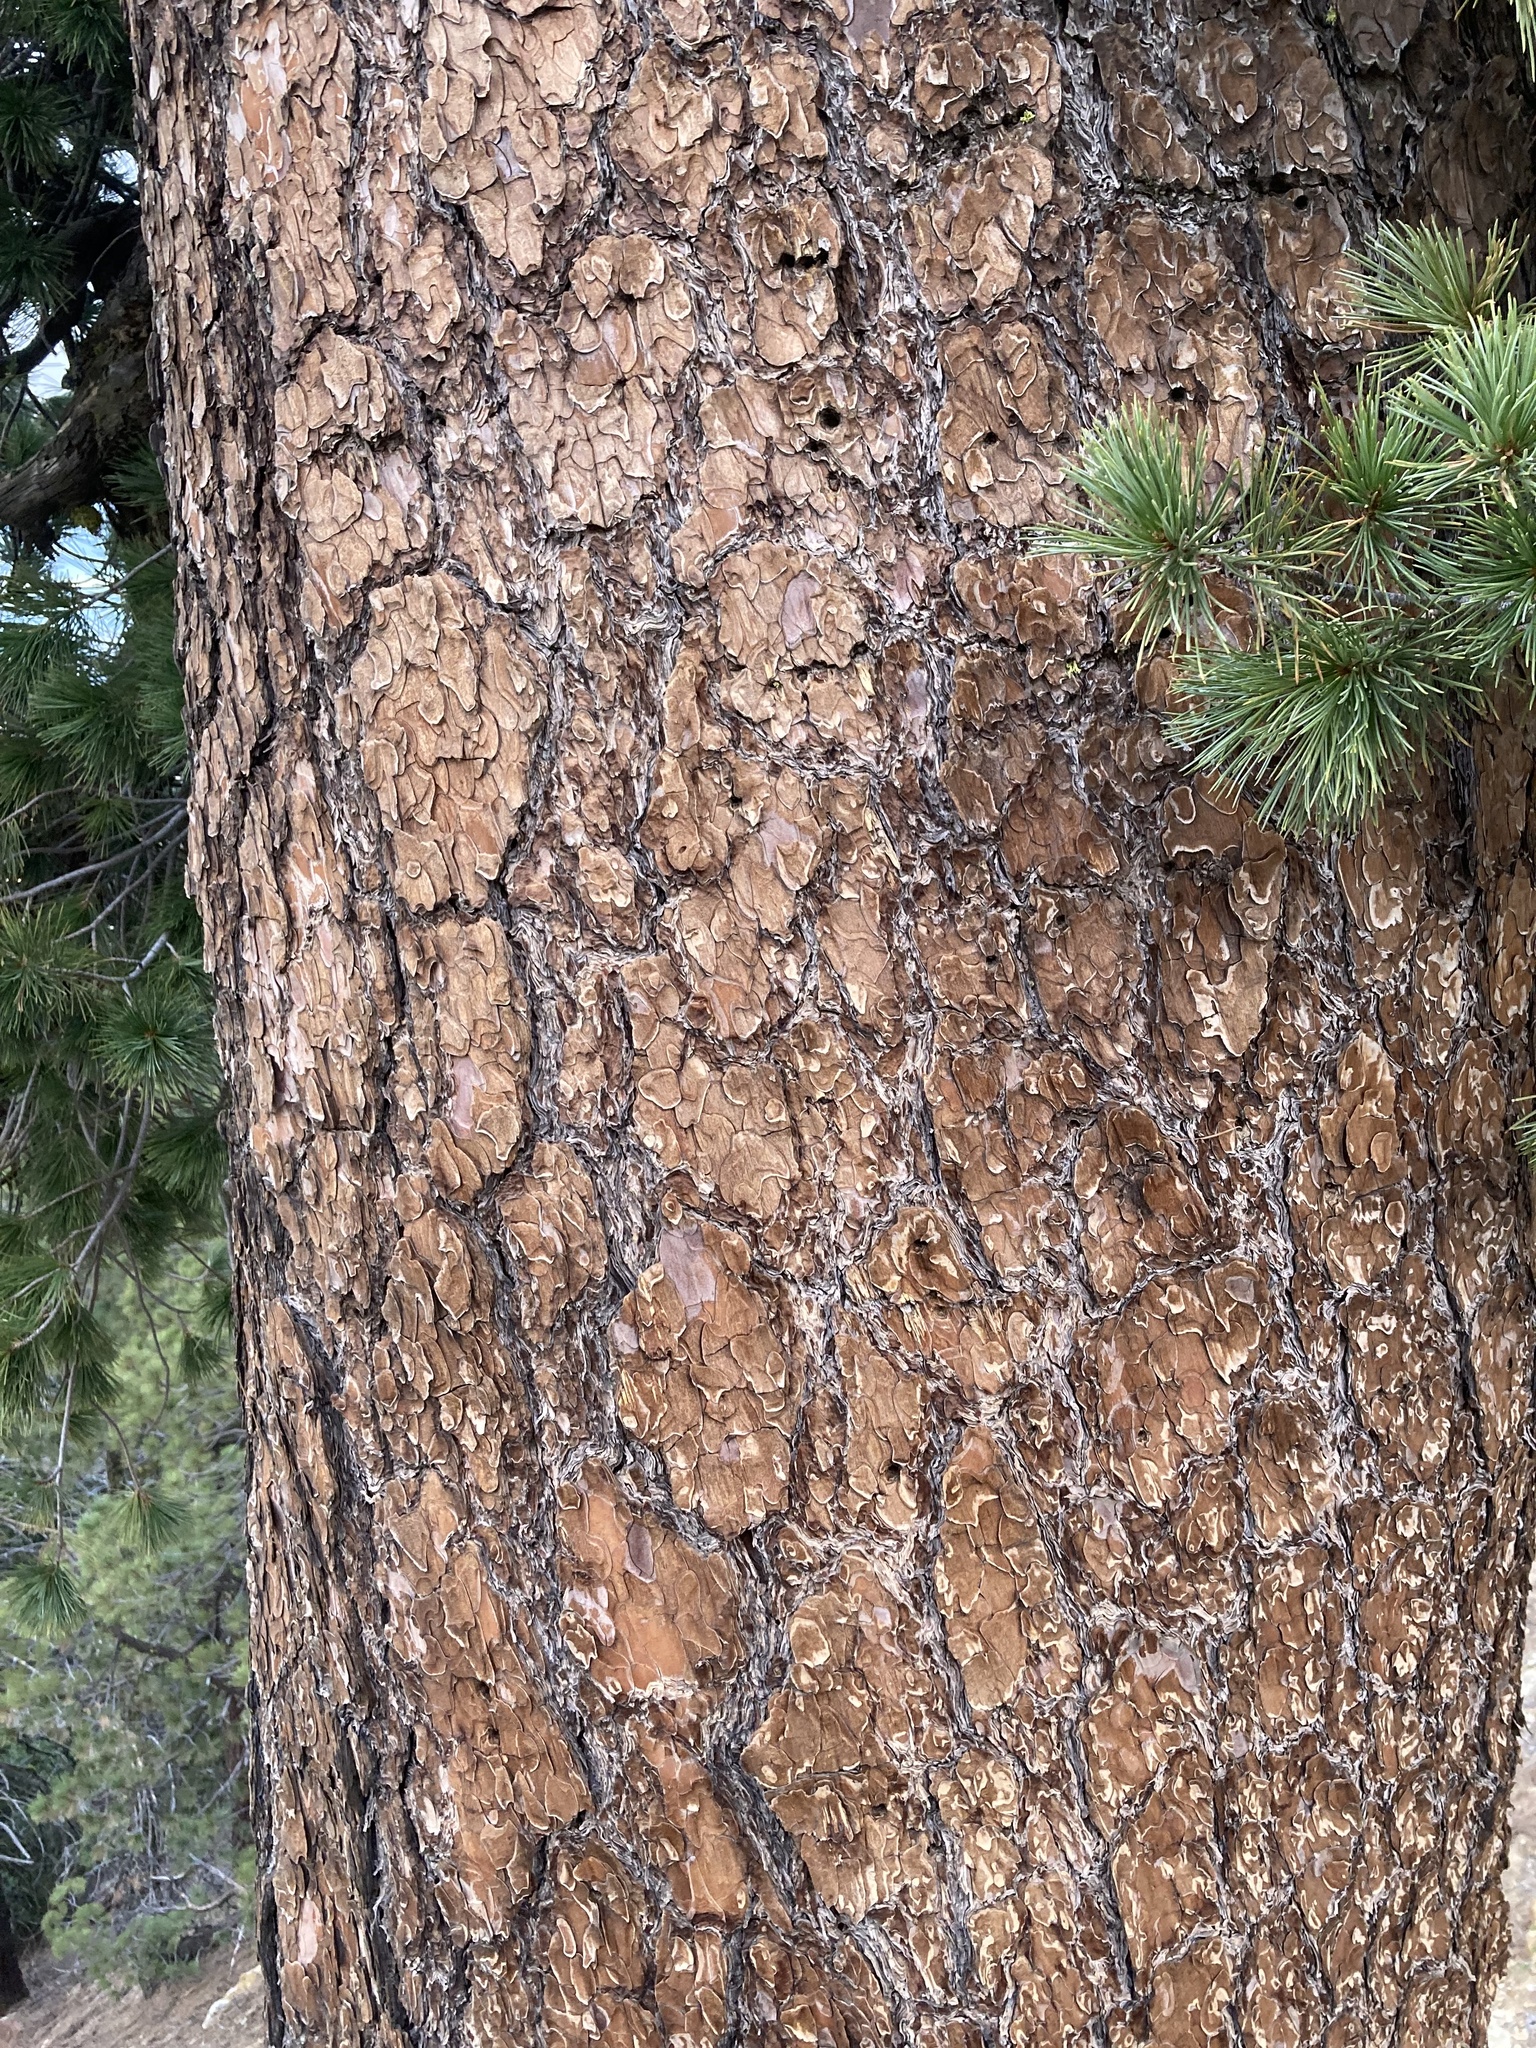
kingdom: Plantae
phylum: Tracheophyta
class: Pinopsida
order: Pinales
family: Pinaceae
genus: Pinus
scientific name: Pinus lambertiana
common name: Sugar pine
